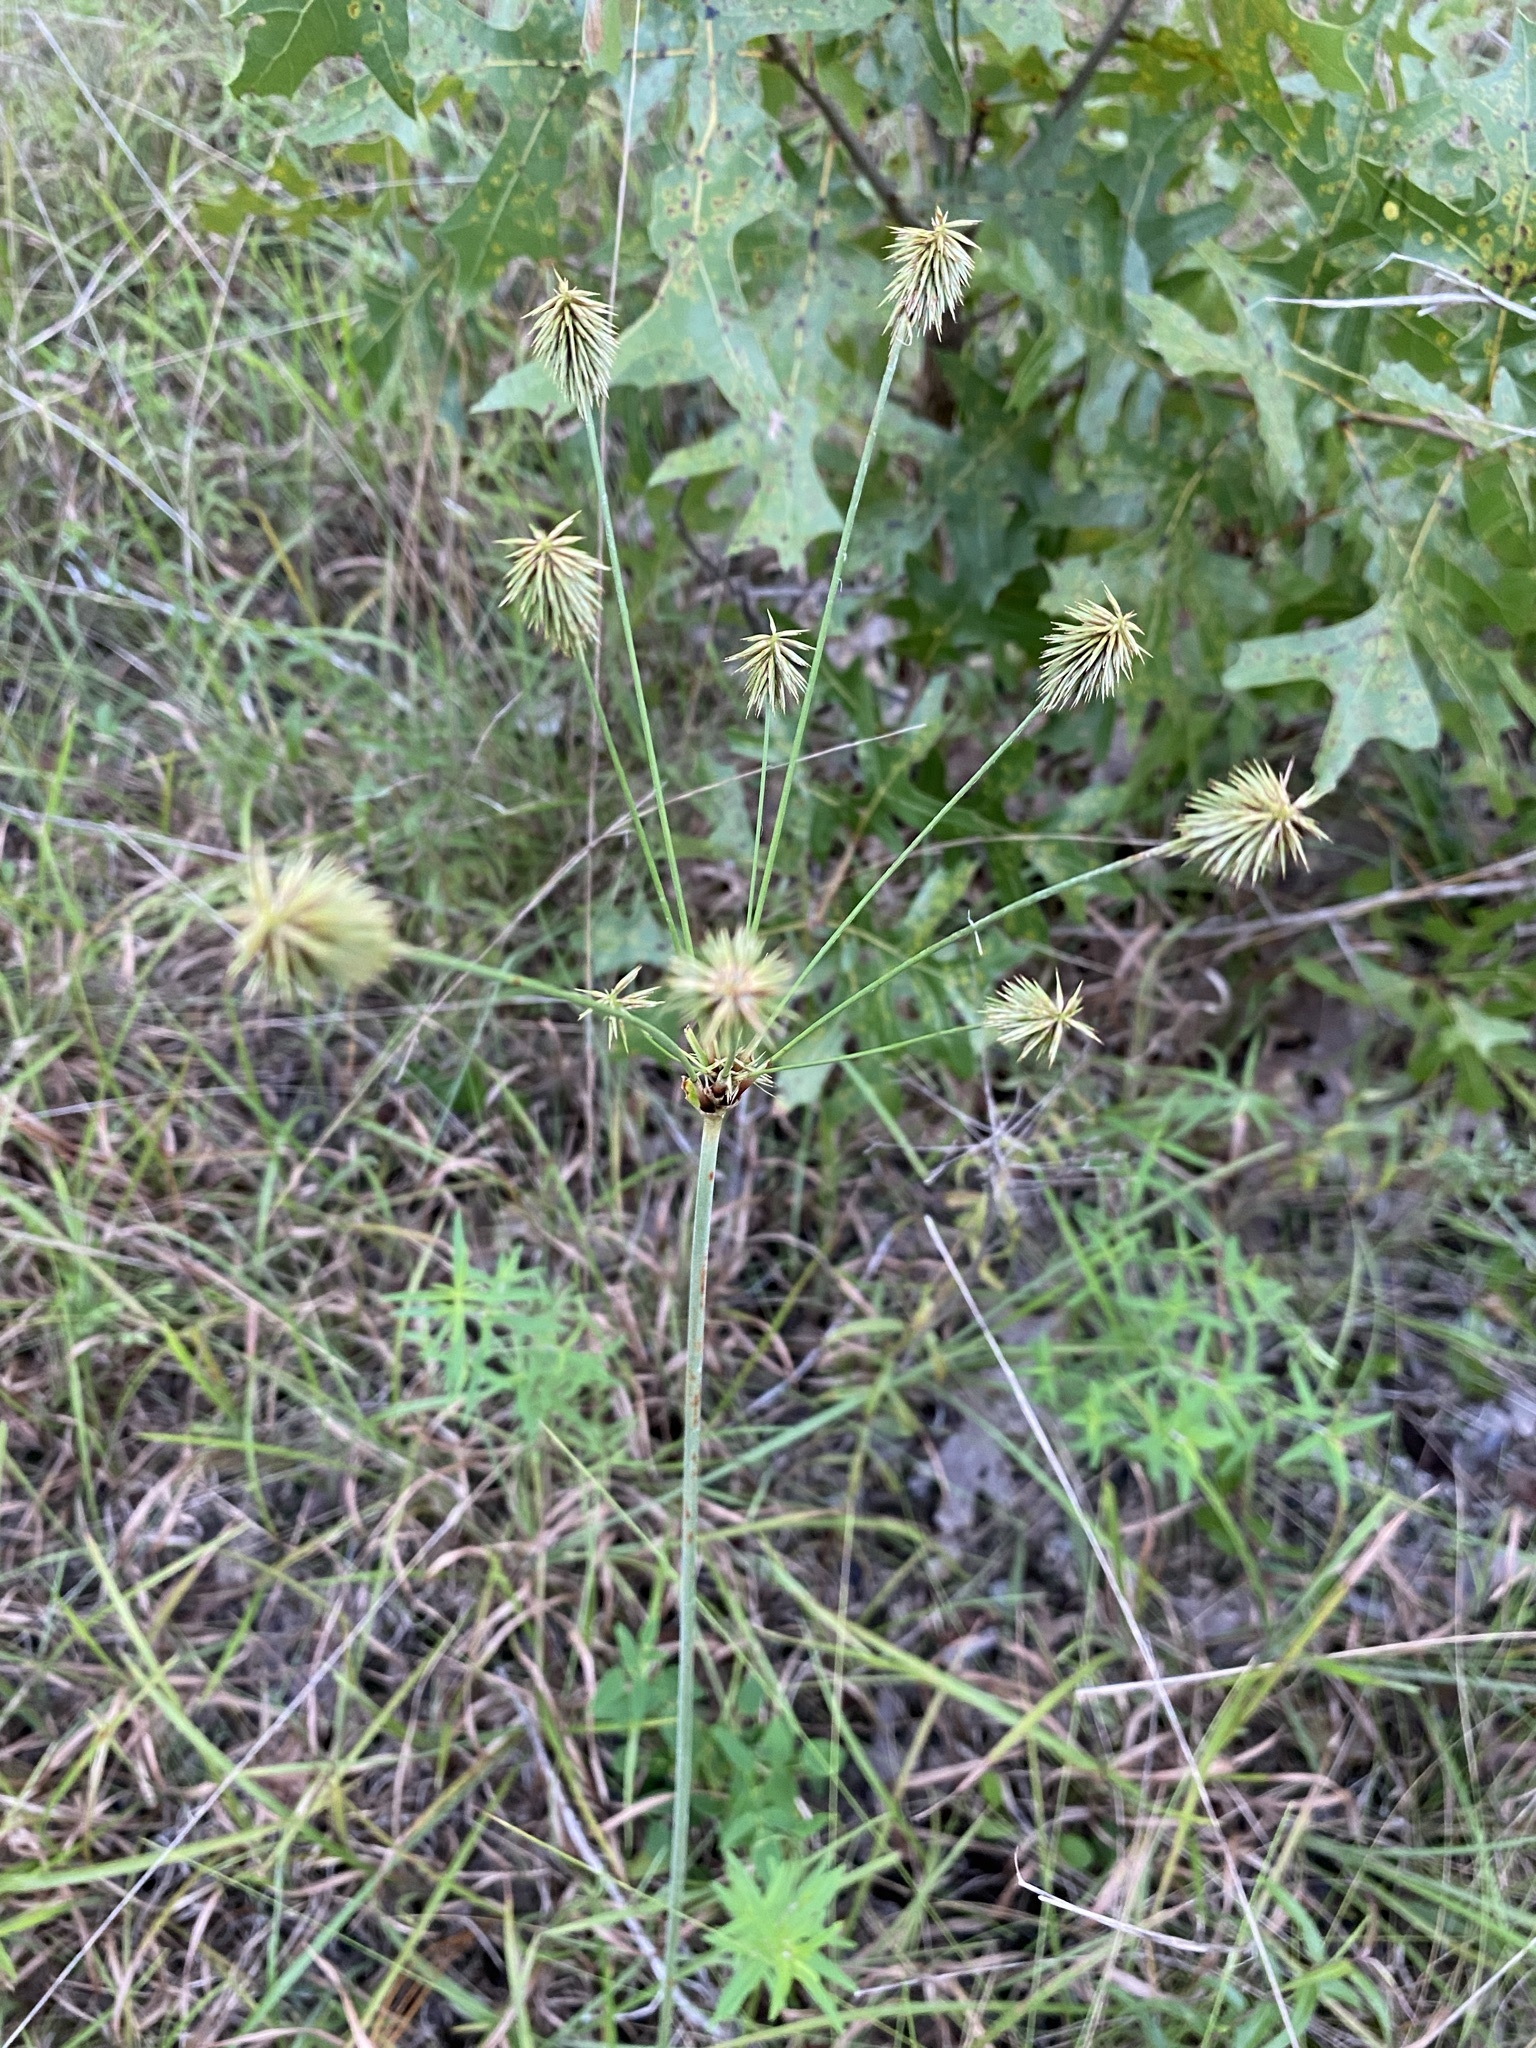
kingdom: Plantae
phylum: Tracheophyta
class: Liliopsida
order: Poales
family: Cyperaceae
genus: Cyperus
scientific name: Cyperus plukenetii
